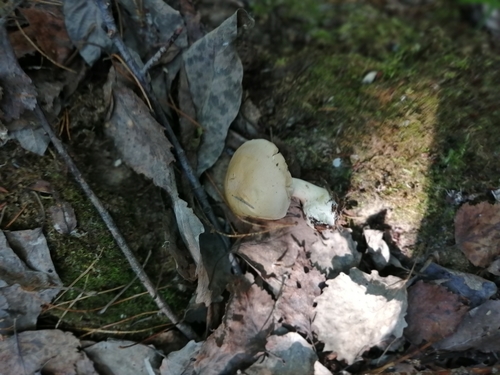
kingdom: Fungi
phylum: Basidiomycota
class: Agaricomycetes
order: Agaricales
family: Hymenogastraceae
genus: Hebeloma
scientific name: Hebeloma
